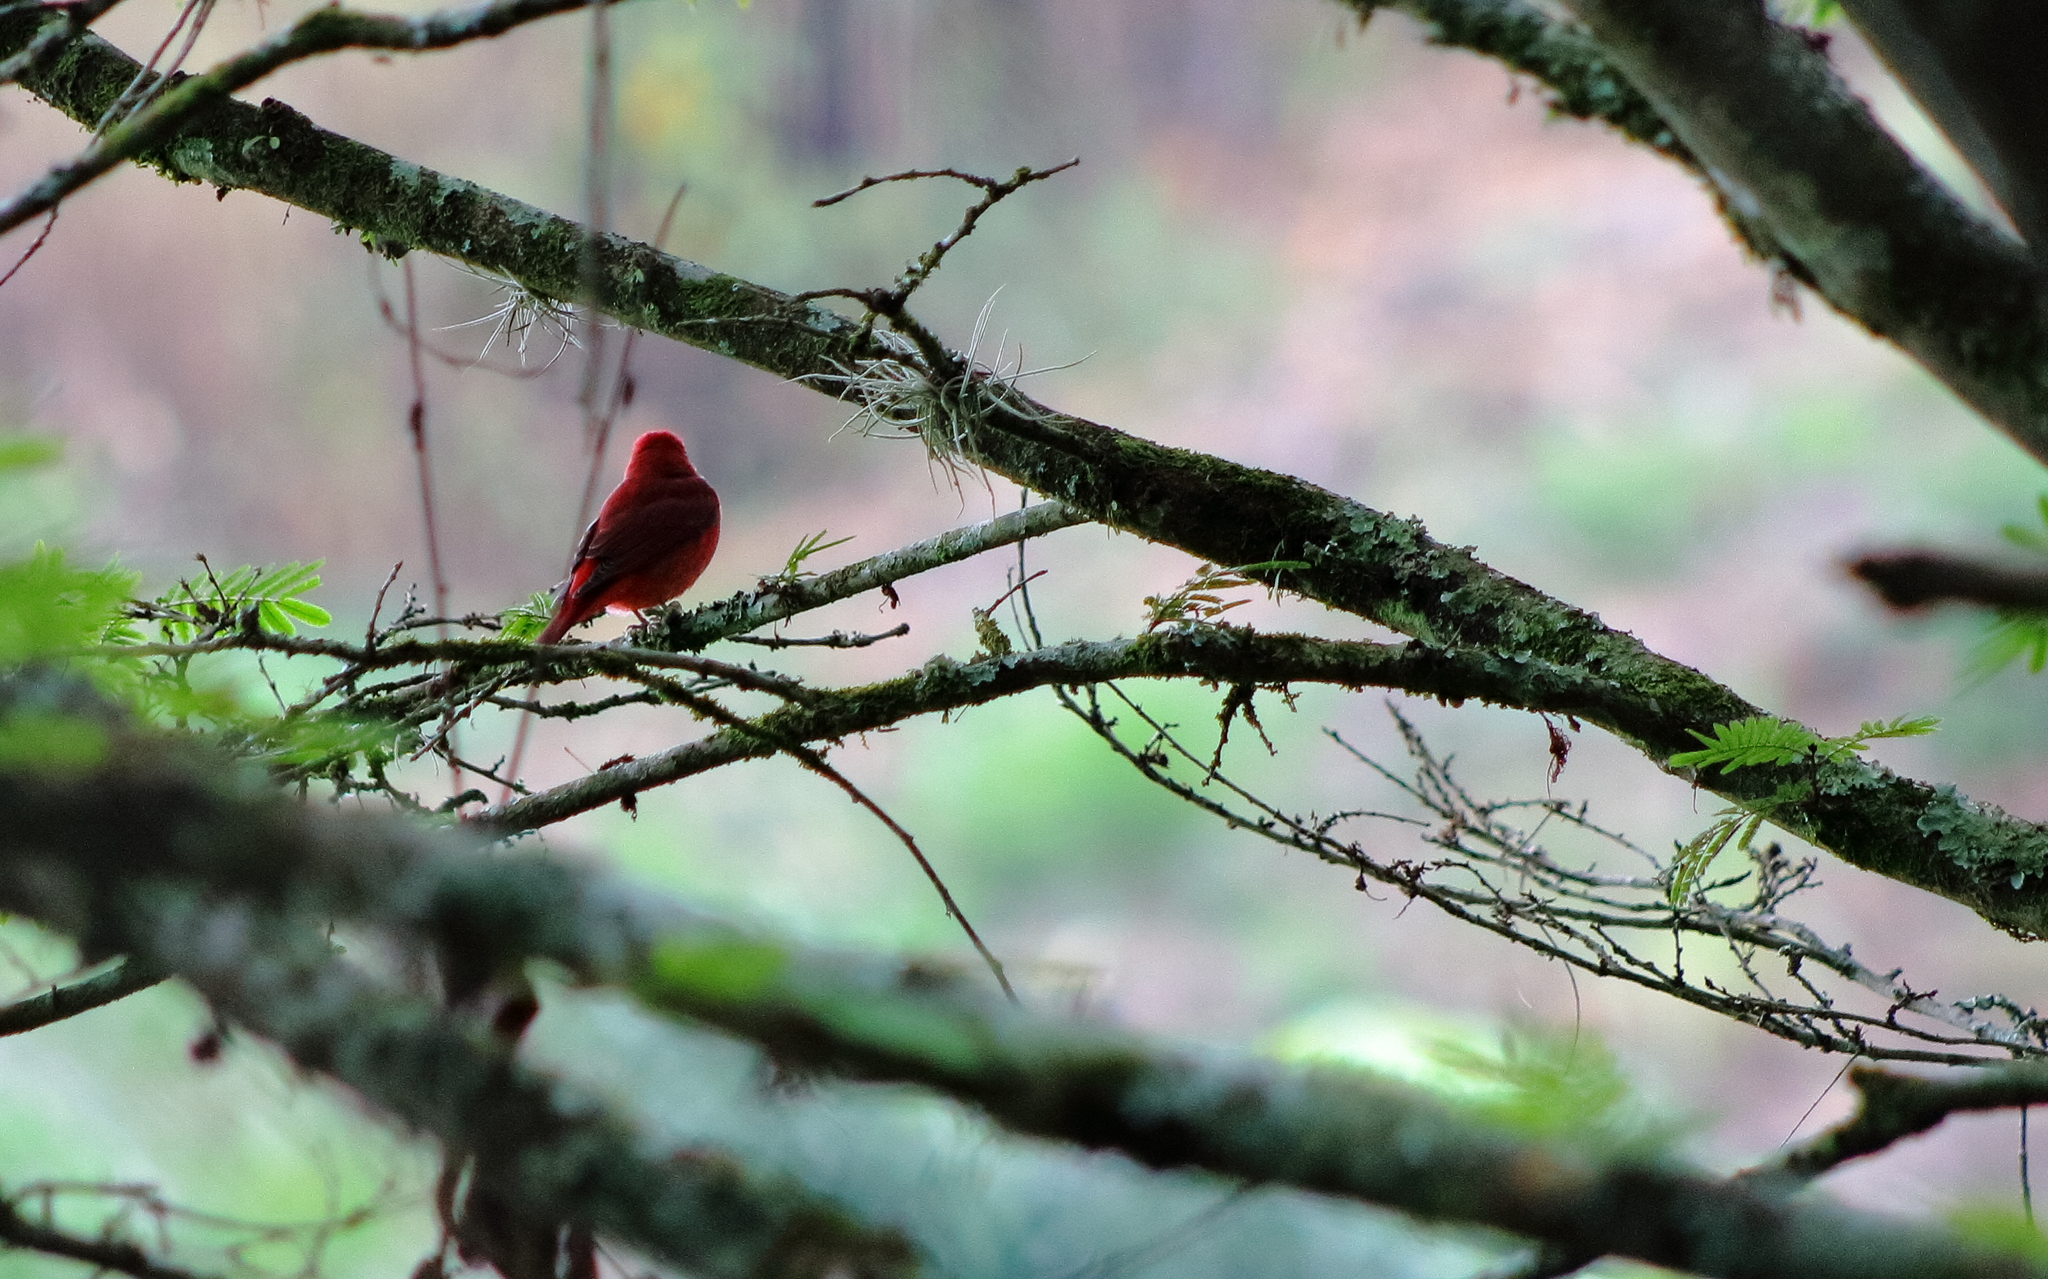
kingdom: Animalia
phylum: Chordata
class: Aves
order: Passeriformes
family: Cardinalidae
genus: Piranga
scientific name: Piranga rubra
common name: Summer tanager
